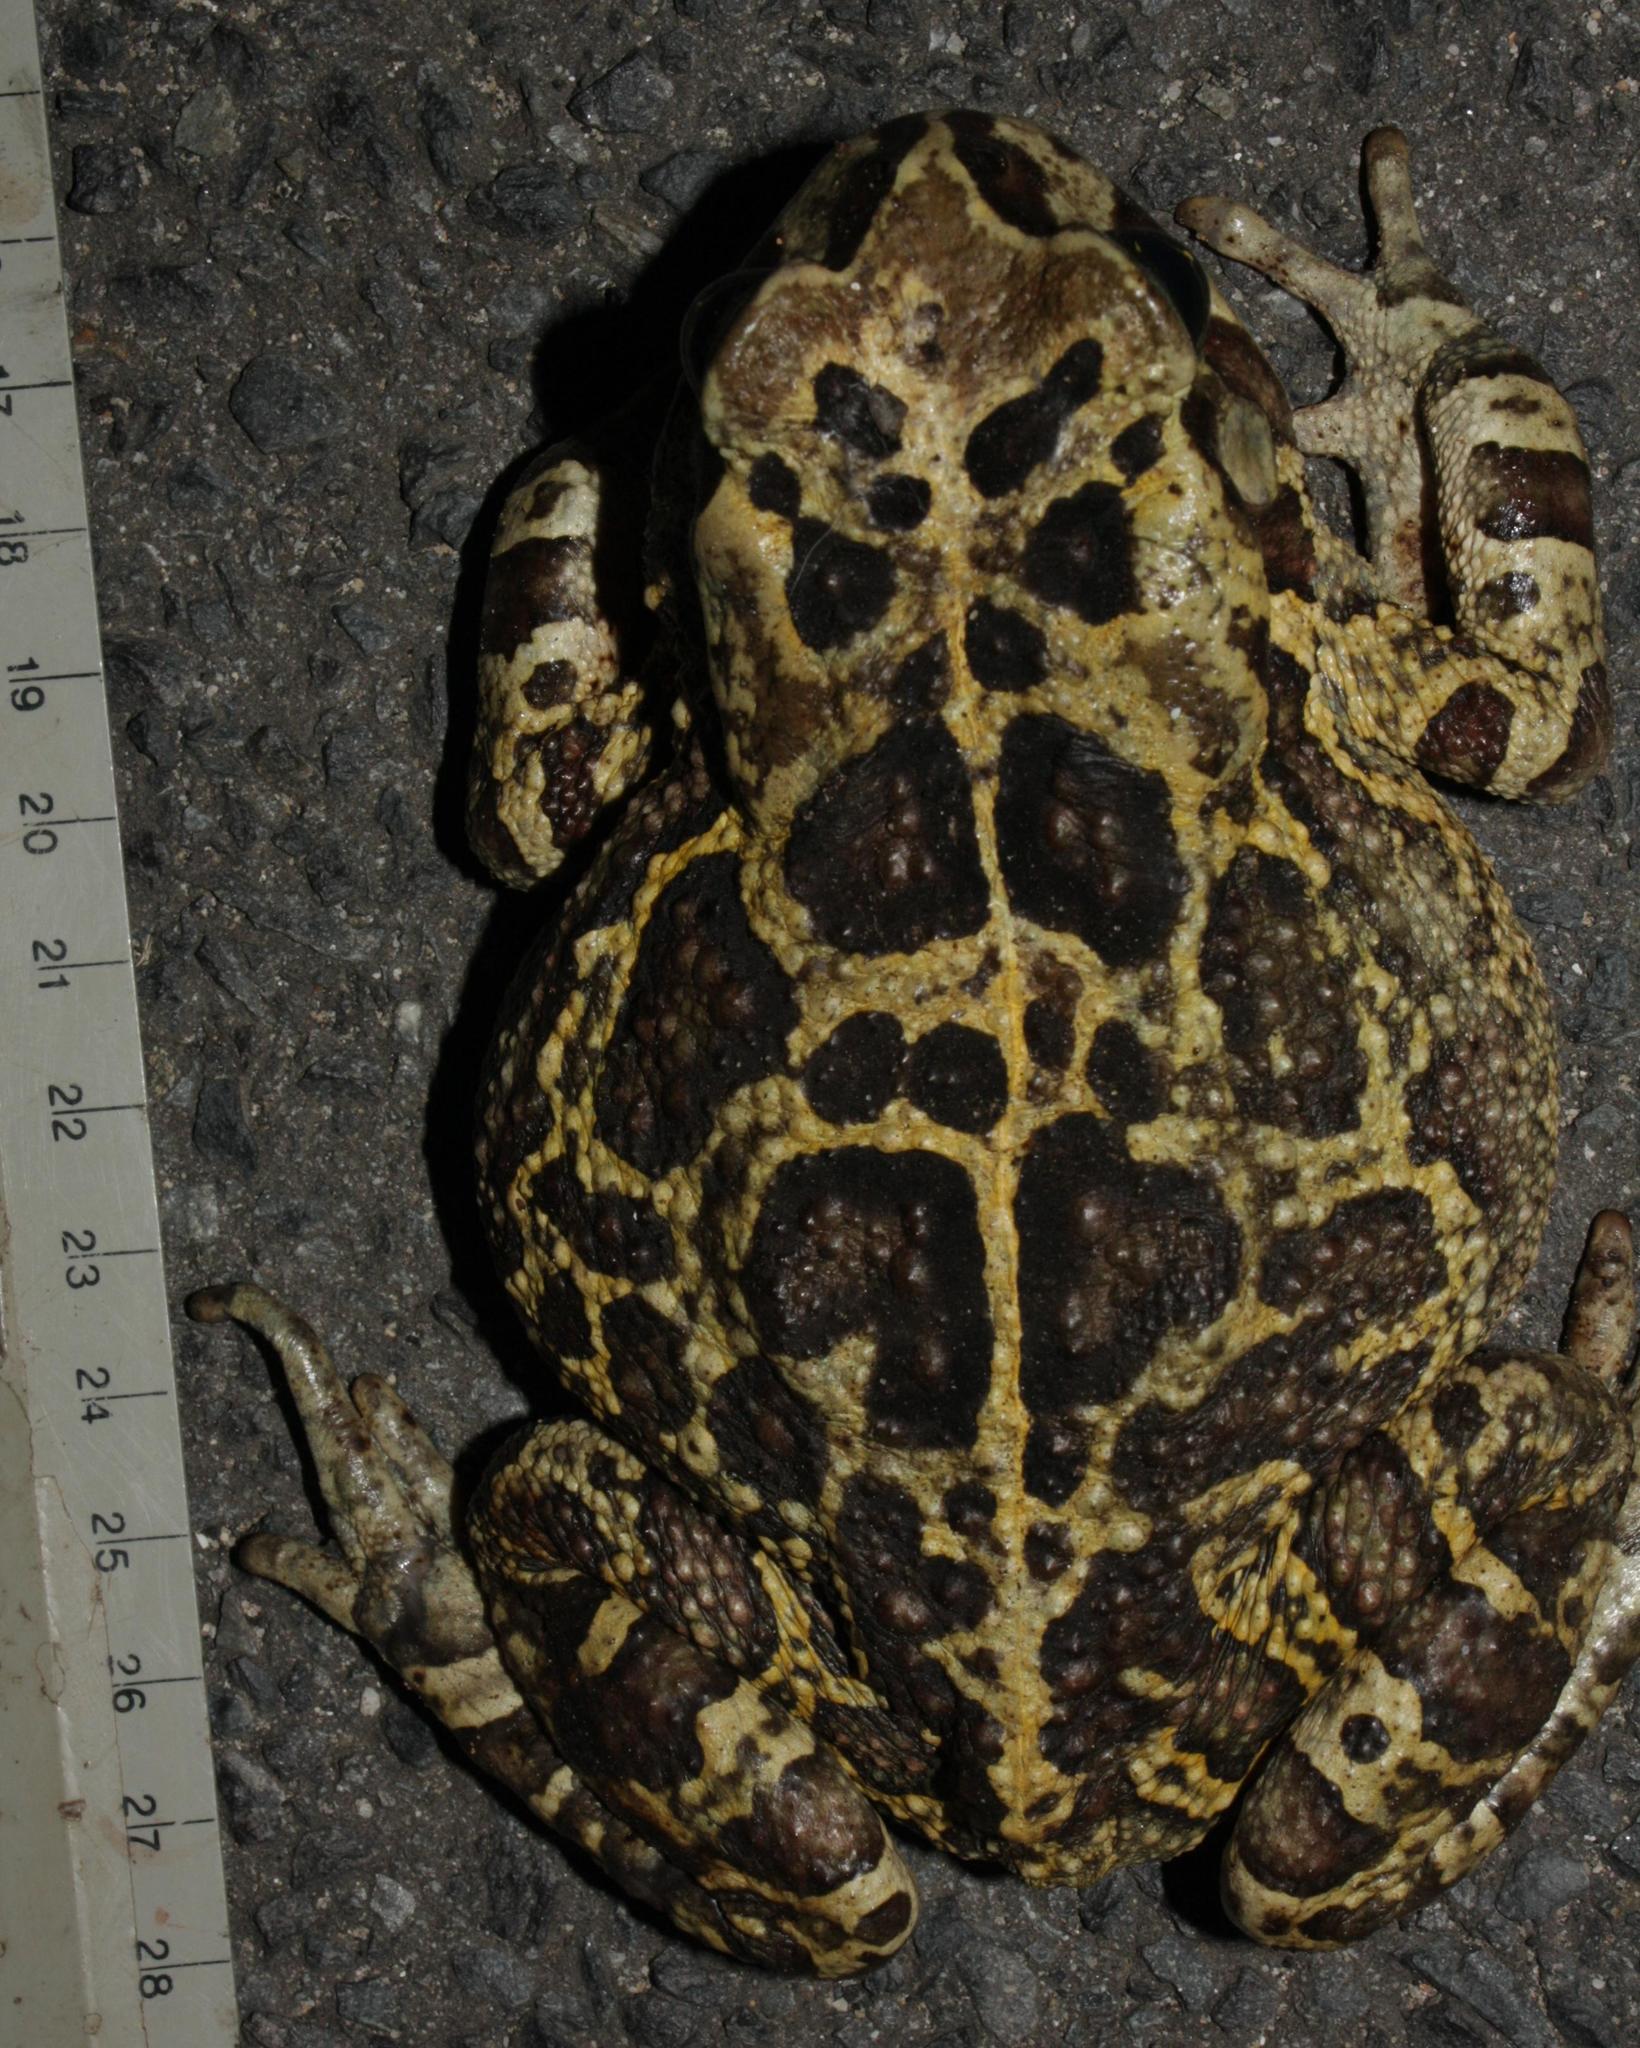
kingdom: Animalia
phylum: Chordata
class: Amphibia
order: Anura
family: Bufonidae
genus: Sclerophrys
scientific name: Sclerophrys pantherina
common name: Panther toad
